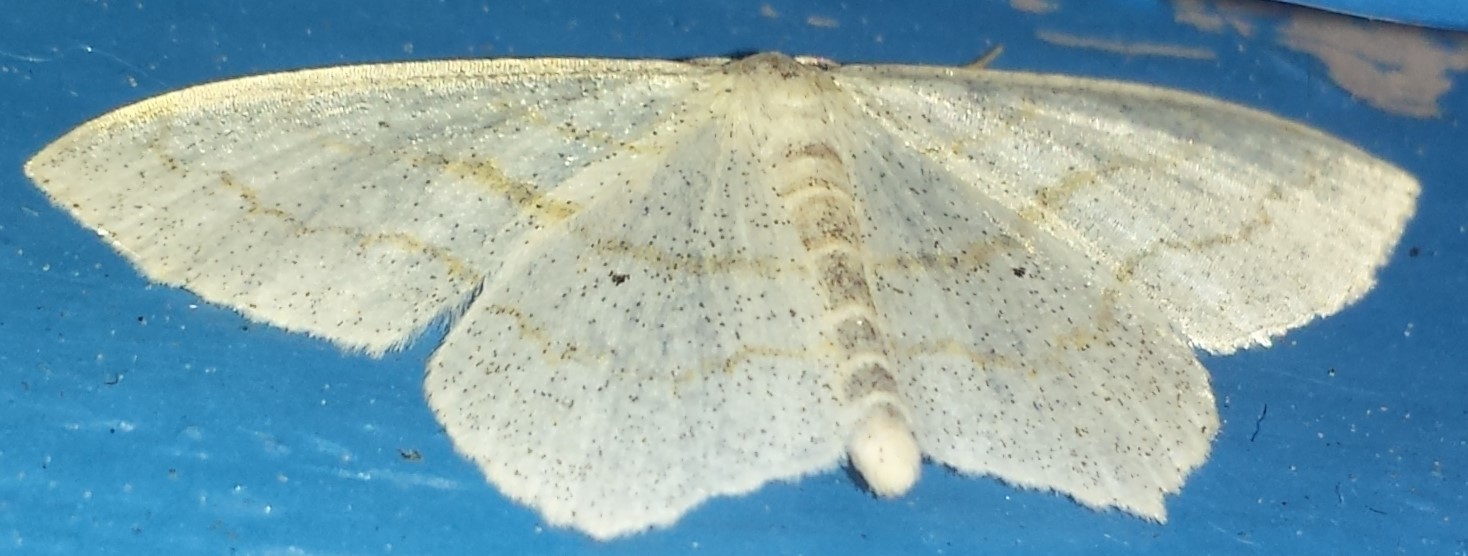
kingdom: Animalia
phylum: Arthropoda
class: Insecta
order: Lepidoptera
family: Geometridae
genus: Scopula
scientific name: Scopula limboundata
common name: Large lace border
